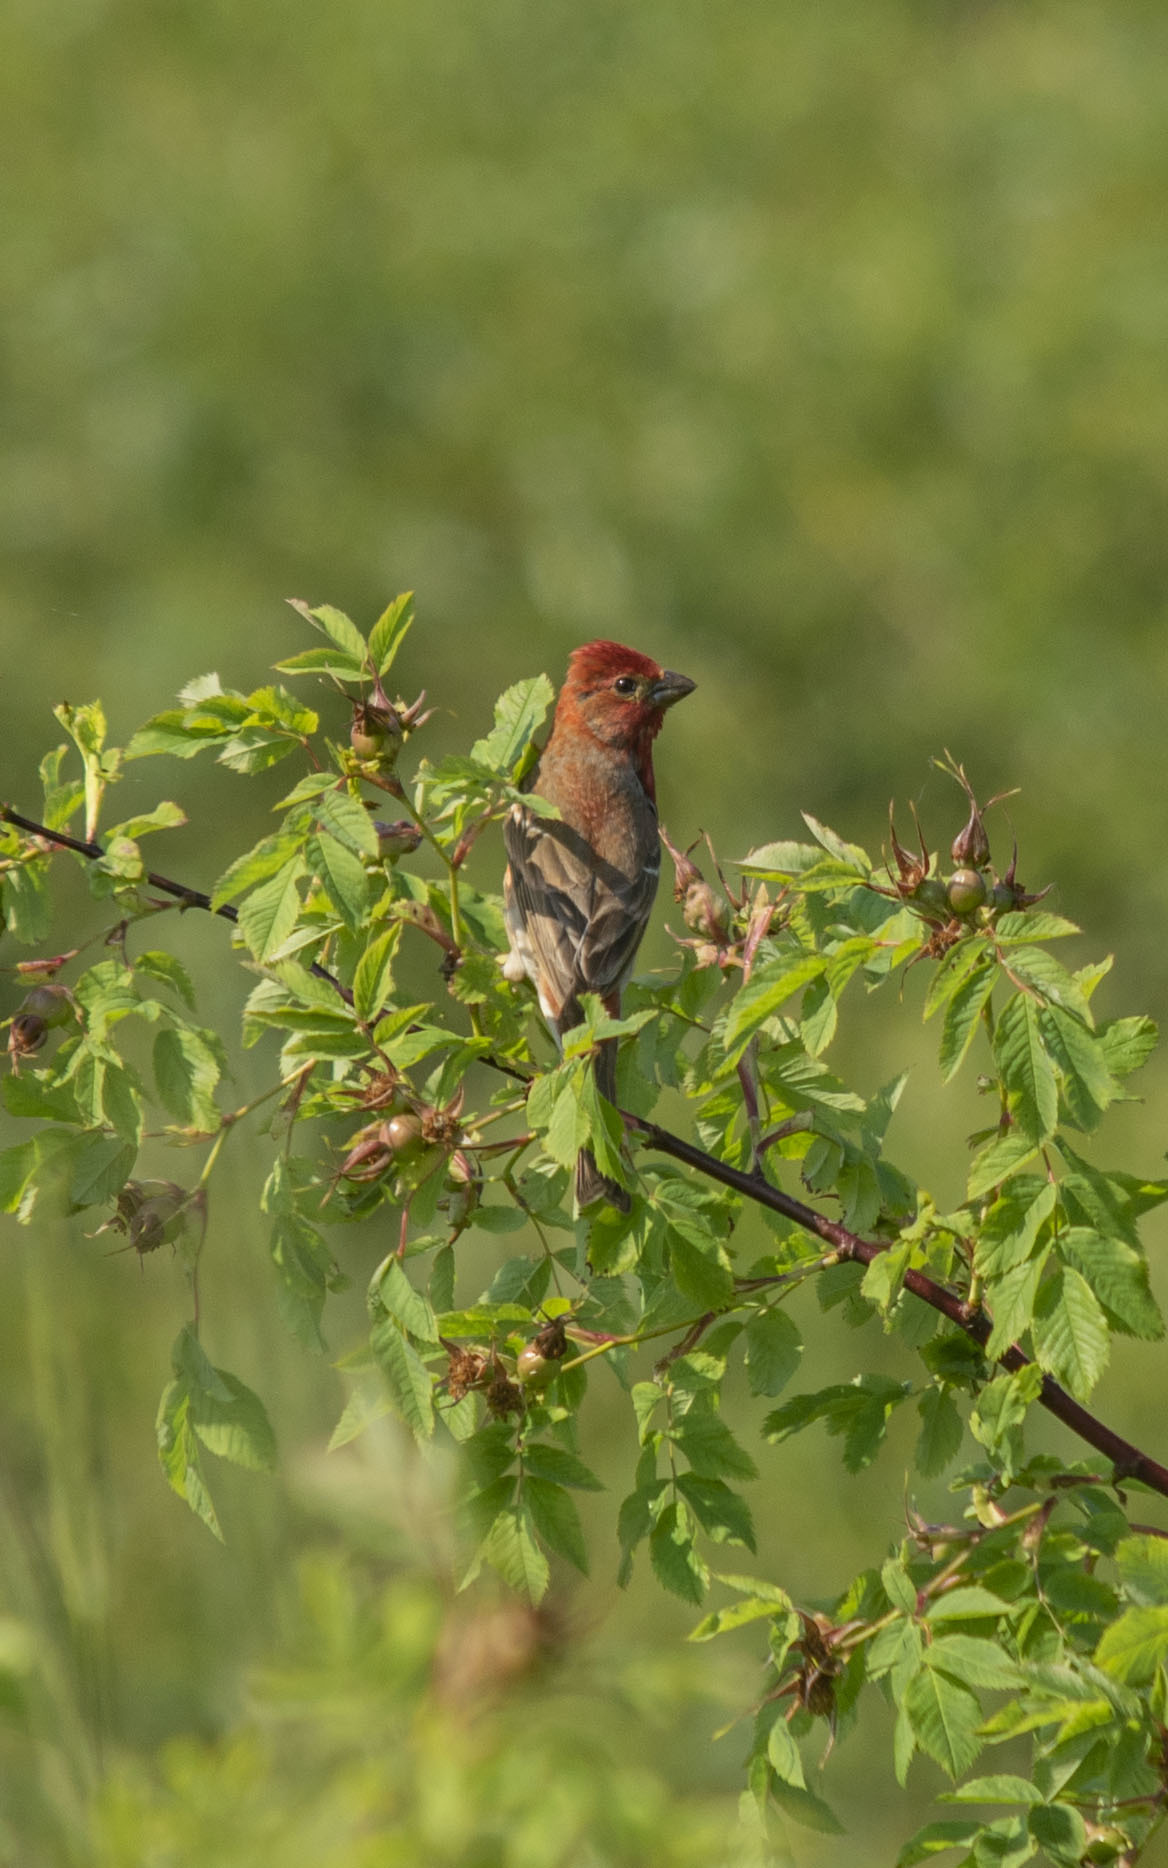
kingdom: Animalia
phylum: Chordata
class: Aves
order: Passeriformes
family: Fringillidae
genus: Carpodacus
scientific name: Carpodacus erythrinus
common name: Common rosefinch
